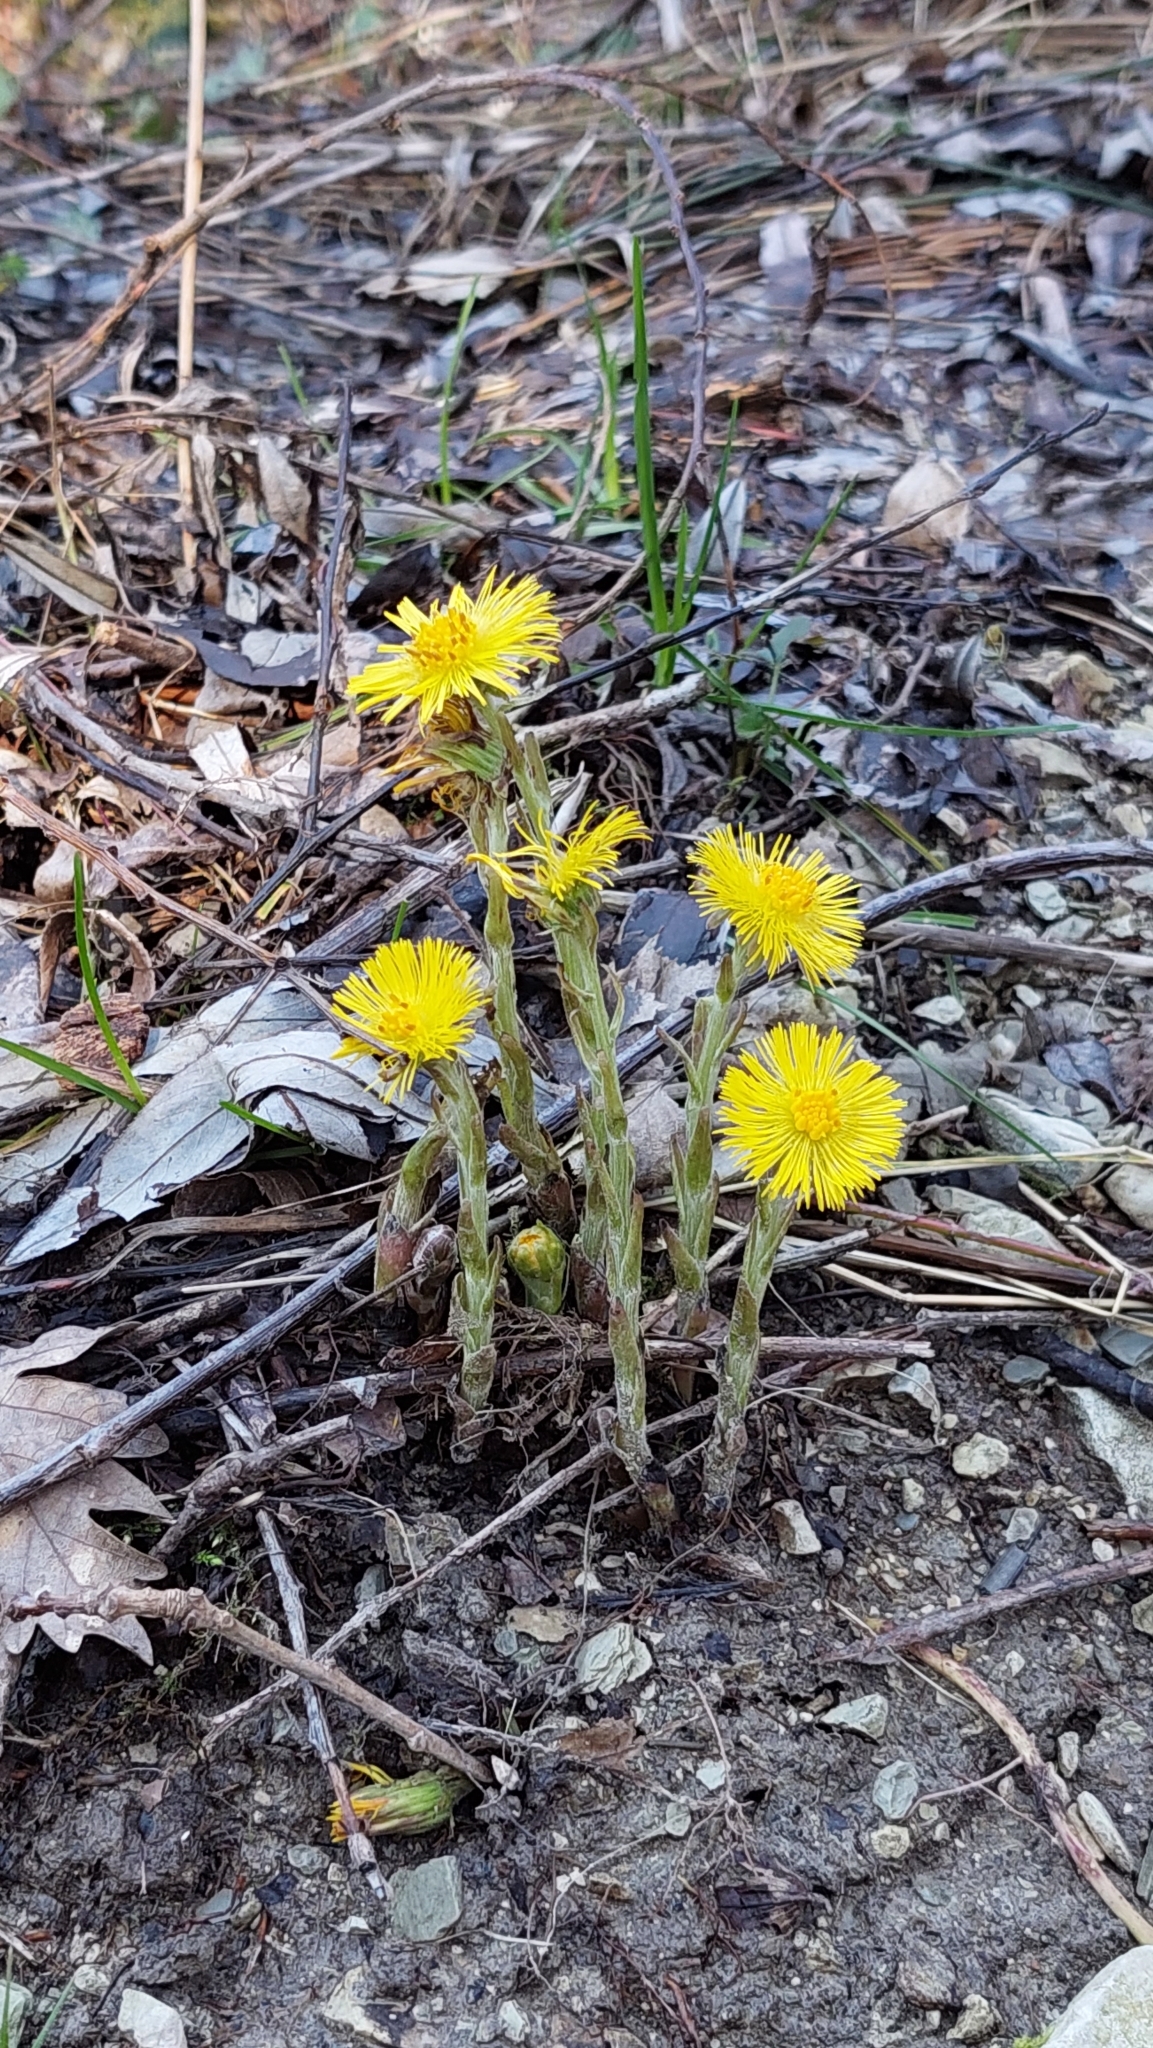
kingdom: Plantae
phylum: Tracheophyta
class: Magnoliopsida
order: Asterales
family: Asteraceae
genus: Tussilago
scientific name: Tussilago farfara
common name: Coltsfoot
